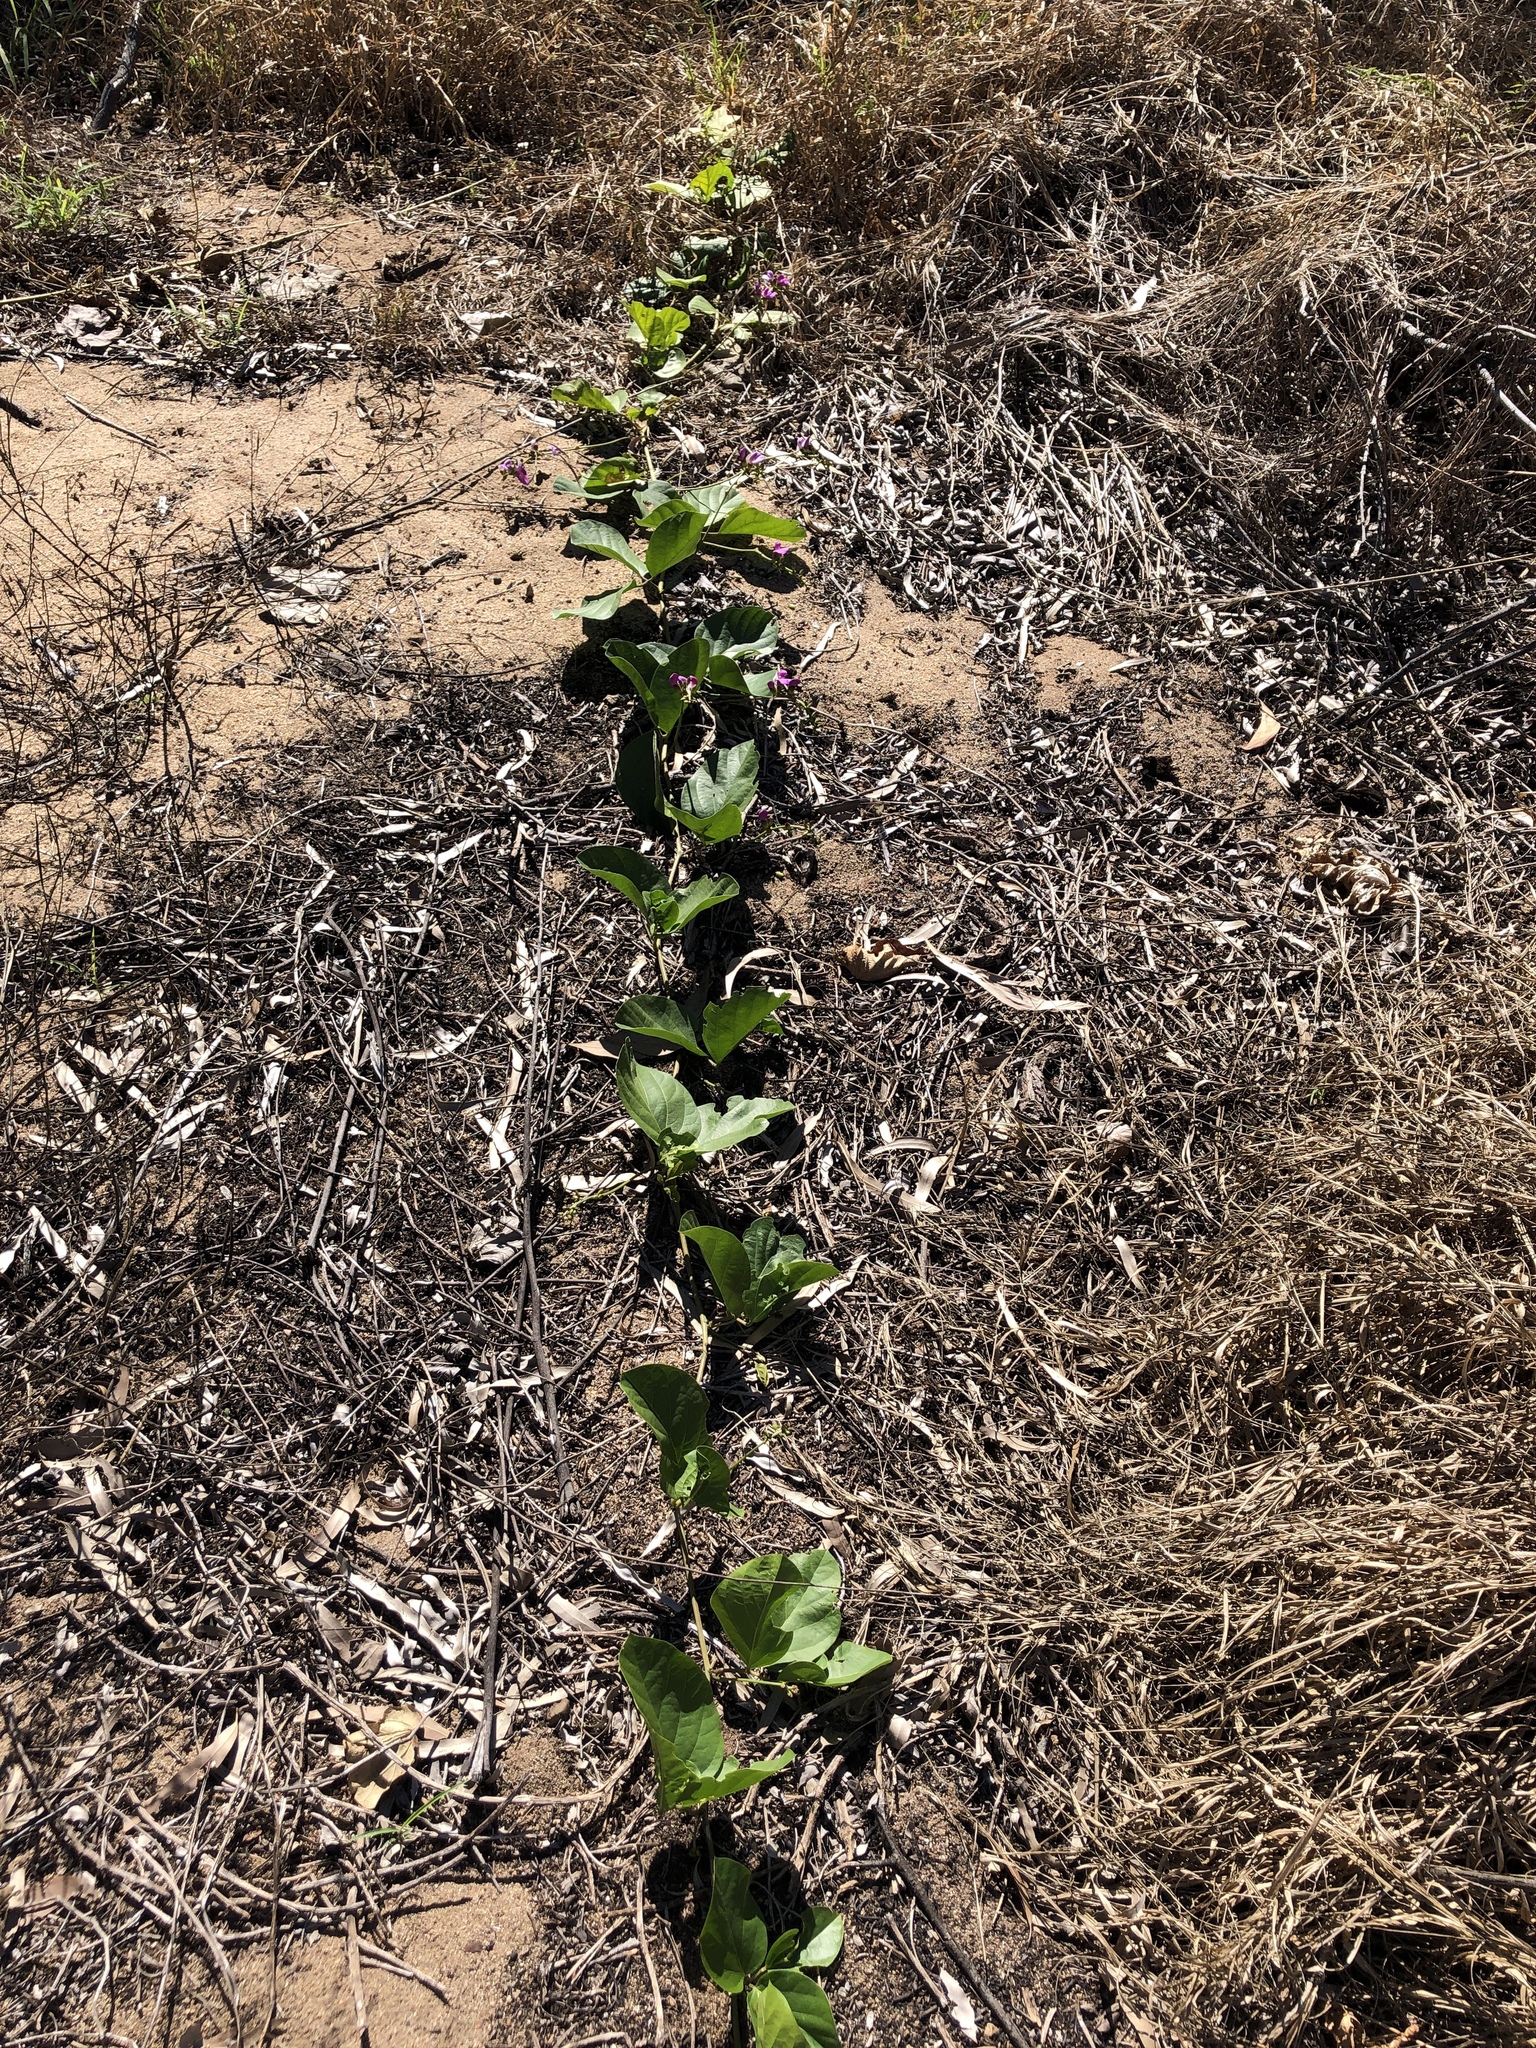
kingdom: Plantae
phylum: Tracheophyta
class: Magnoliopsida
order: Fabales
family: Fabaceae
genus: Canavalia
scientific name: Canavalia rosea
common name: Beach-bean
